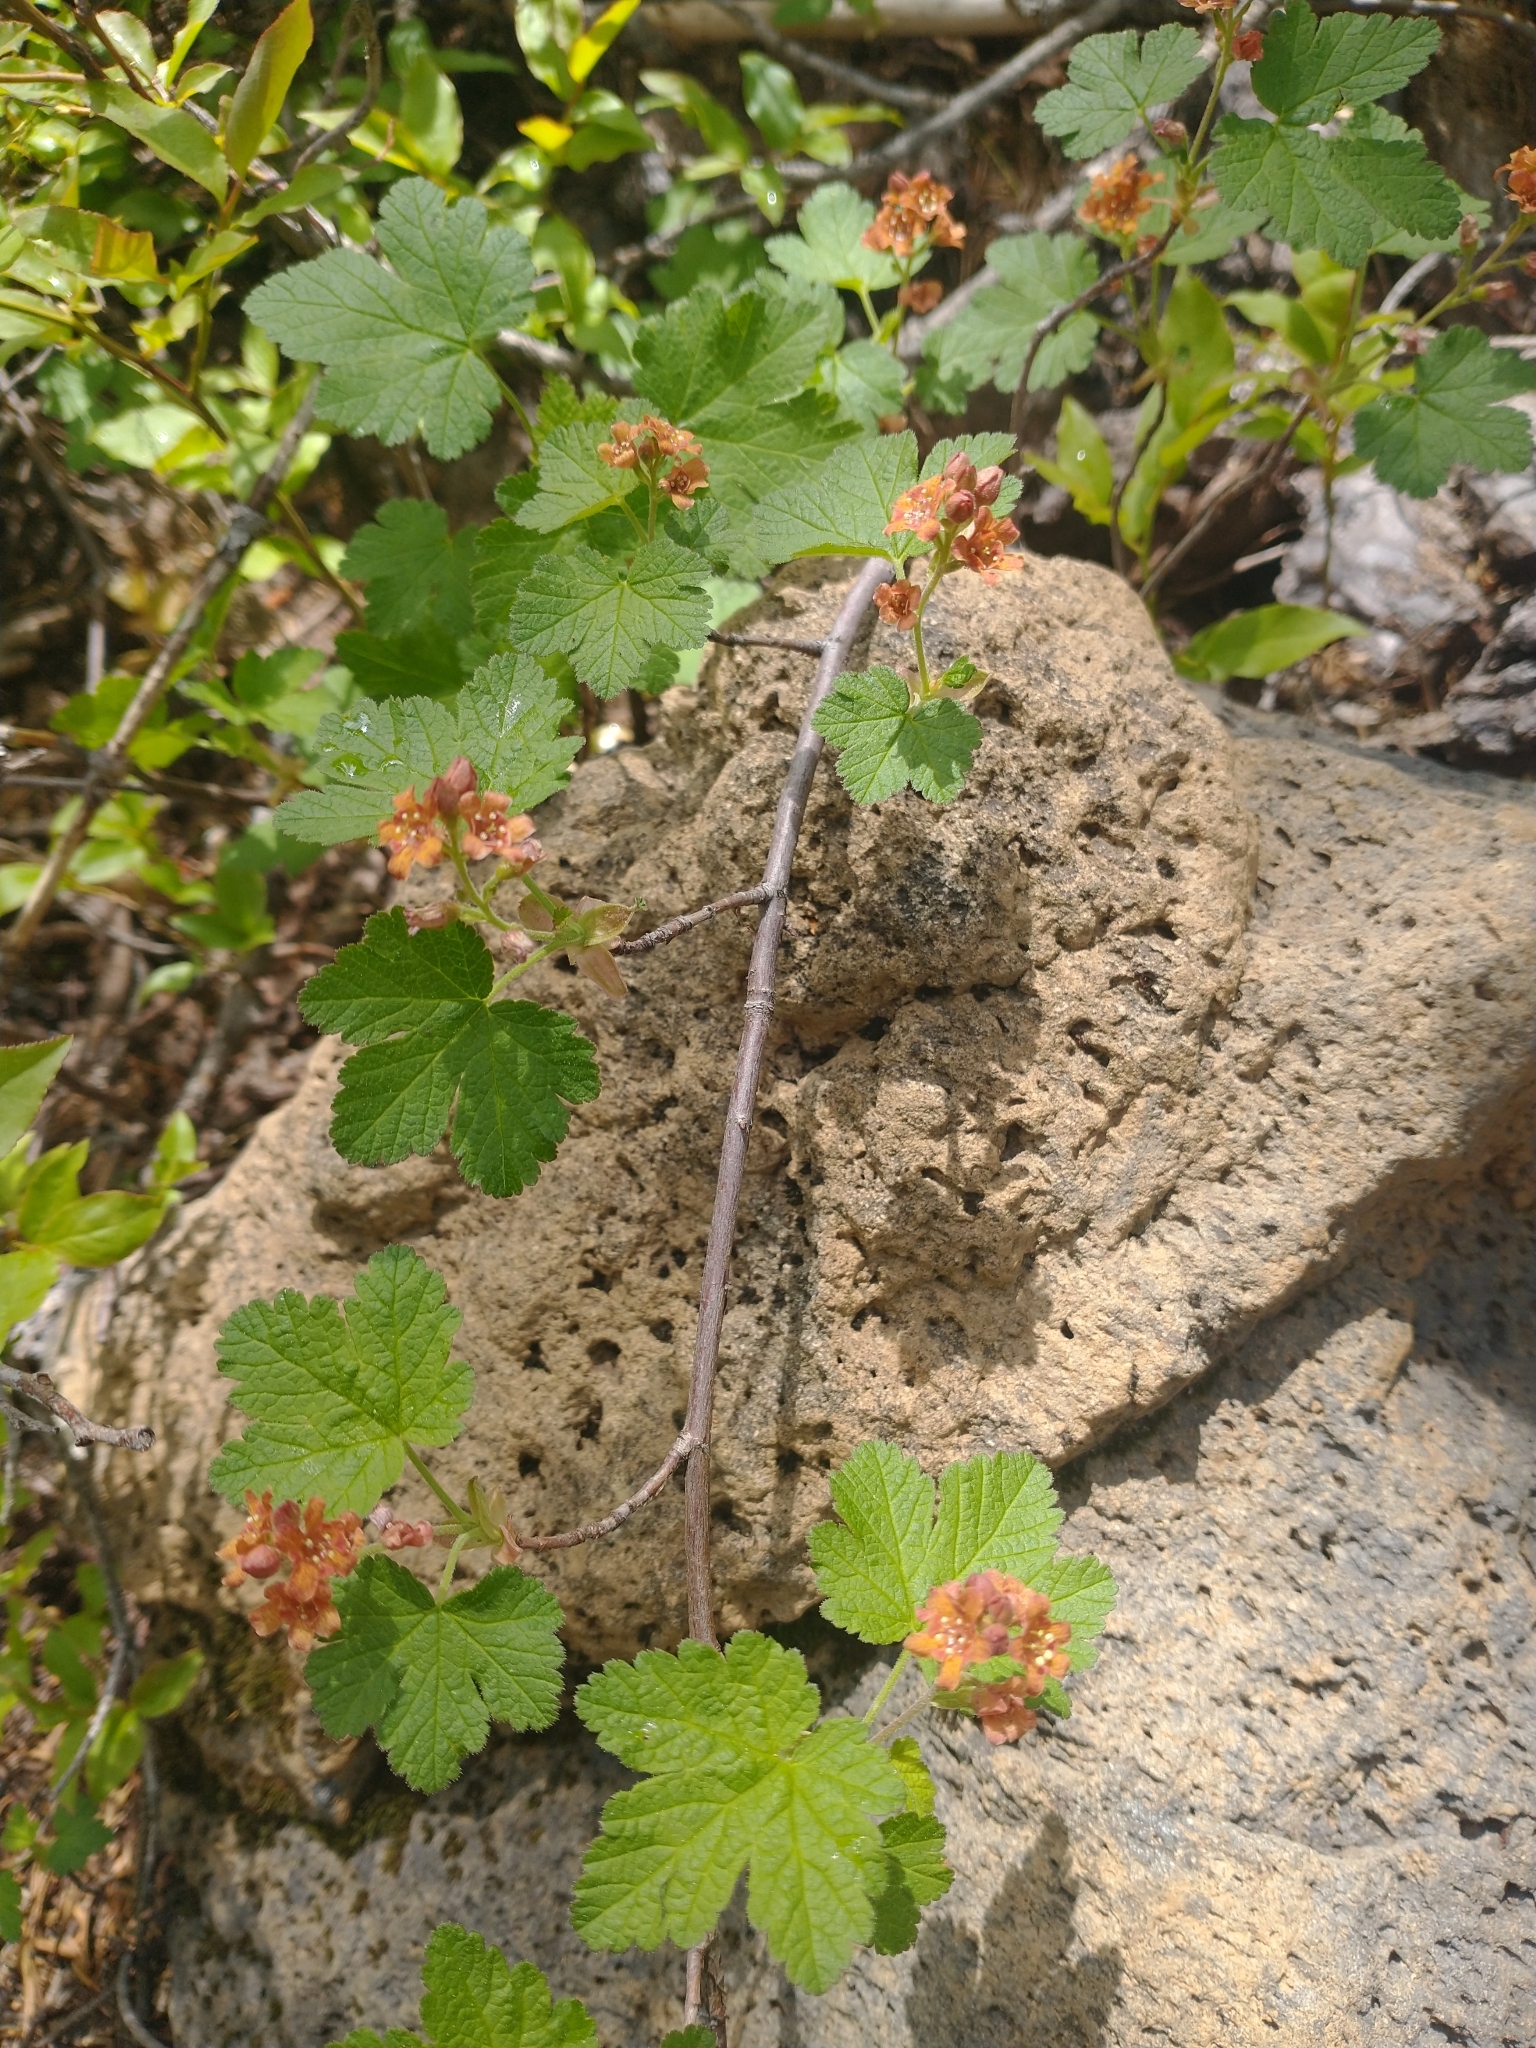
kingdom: Plantae
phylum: Tracheophyta
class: Magnoliopsida
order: Saxifragales
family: Grossulariaceae
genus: Ribes
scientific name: Ribes erythrocarpum
